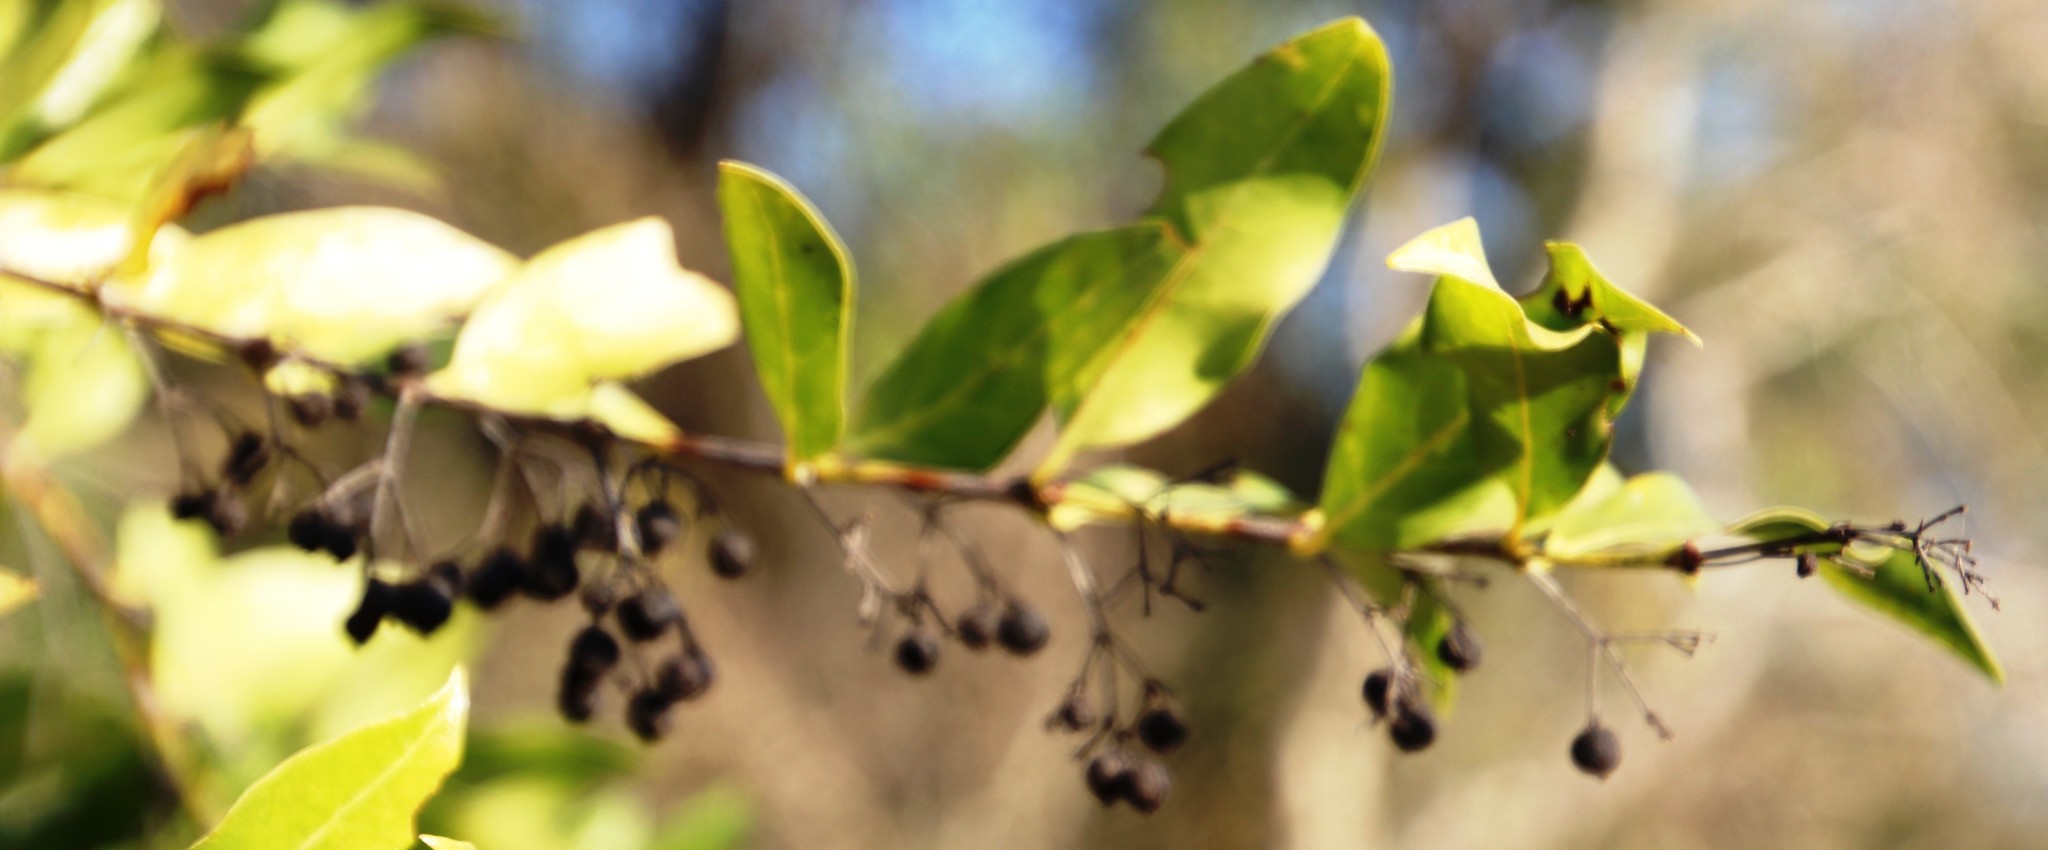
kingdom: Plantae
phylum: Tracheophyta
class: Magnoliopsida
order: Gentianales
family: Rubiaceae
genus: Kraussia
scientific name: Kraussia floribunda
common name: Rhino-coffee
